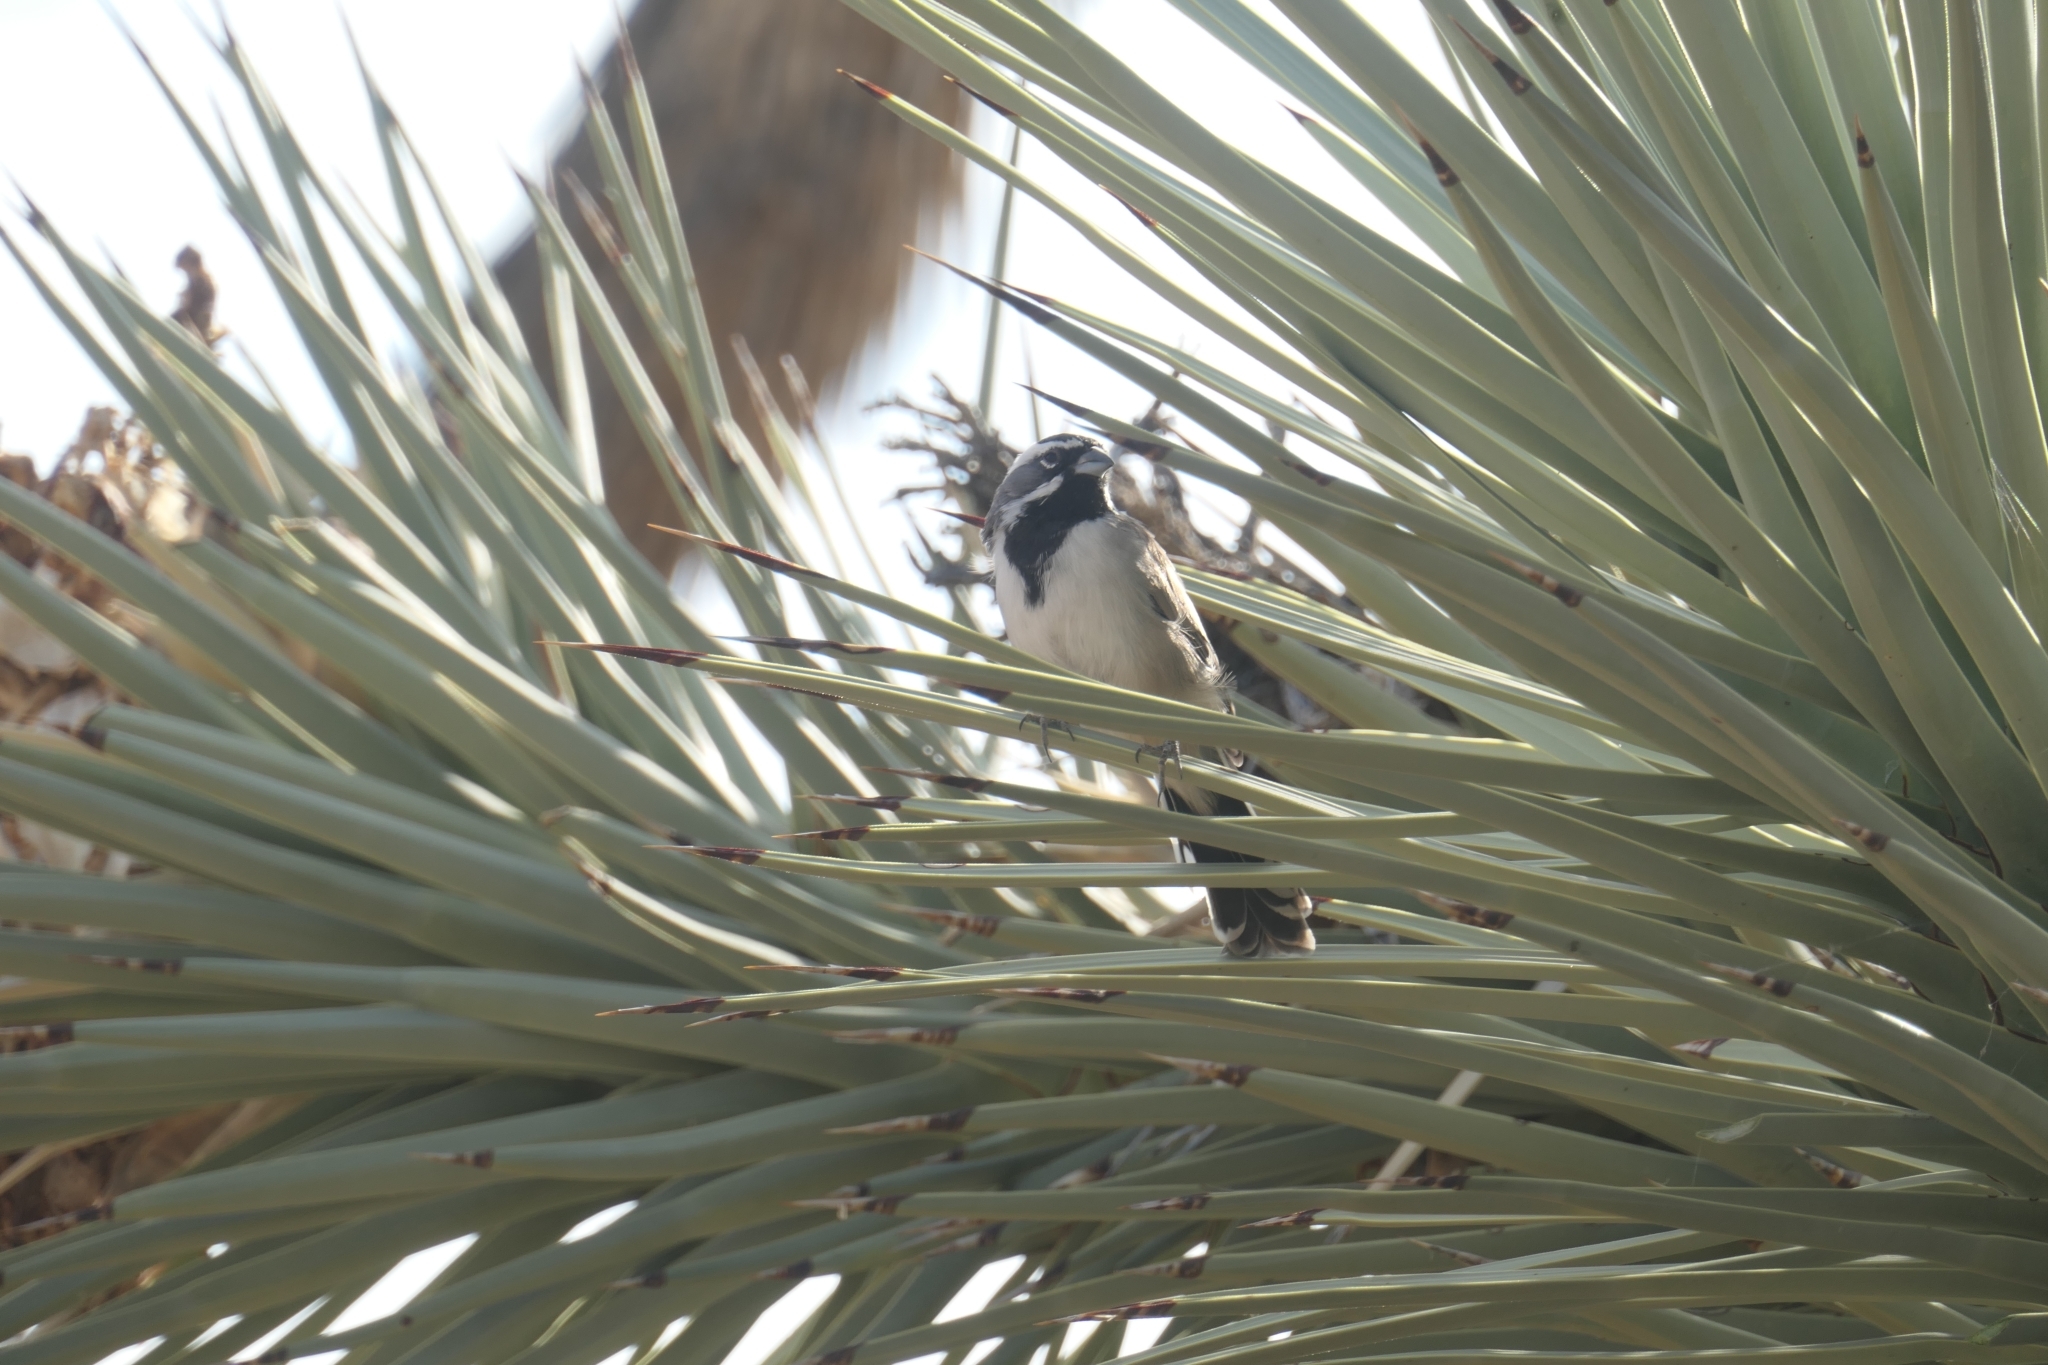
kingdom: Animalia
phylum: Chordata
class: Aves
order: Passeriformes
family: Passerellidae
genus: Amphispiza
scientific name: Amphispiza bilineata
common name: Black-throated sparrow
